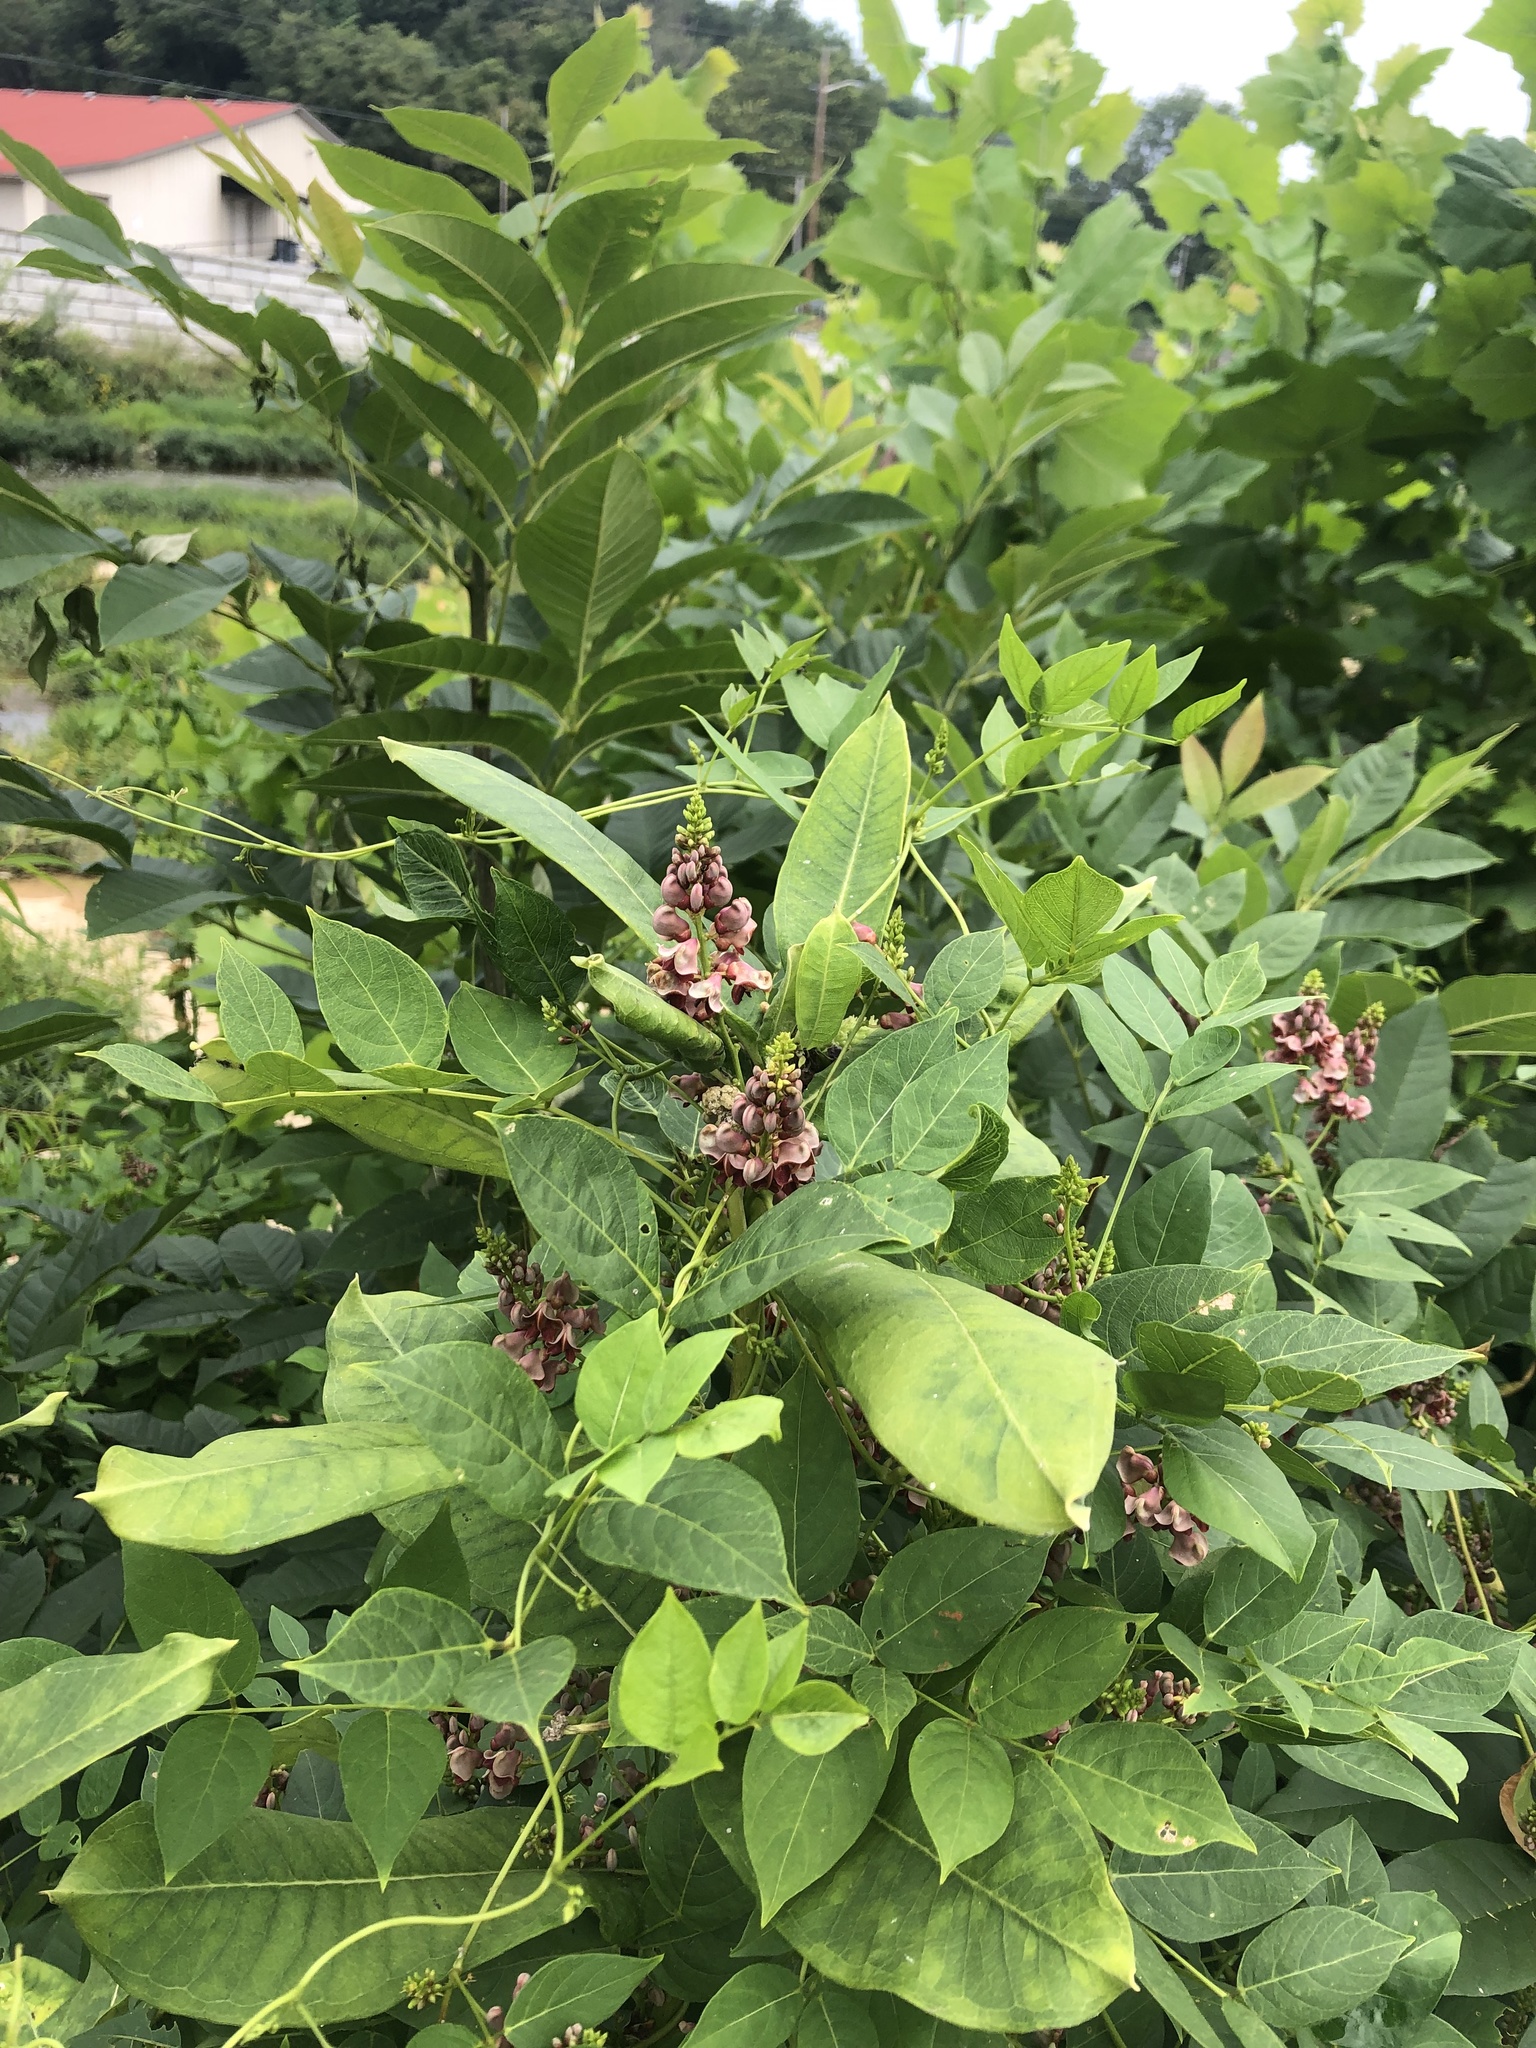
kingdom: Plantae
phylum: Tracheophyta
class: Magnoliopsida
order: Fabales
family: Fabaceae
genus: Apios
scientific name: Apios americana
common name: American potato-bean
